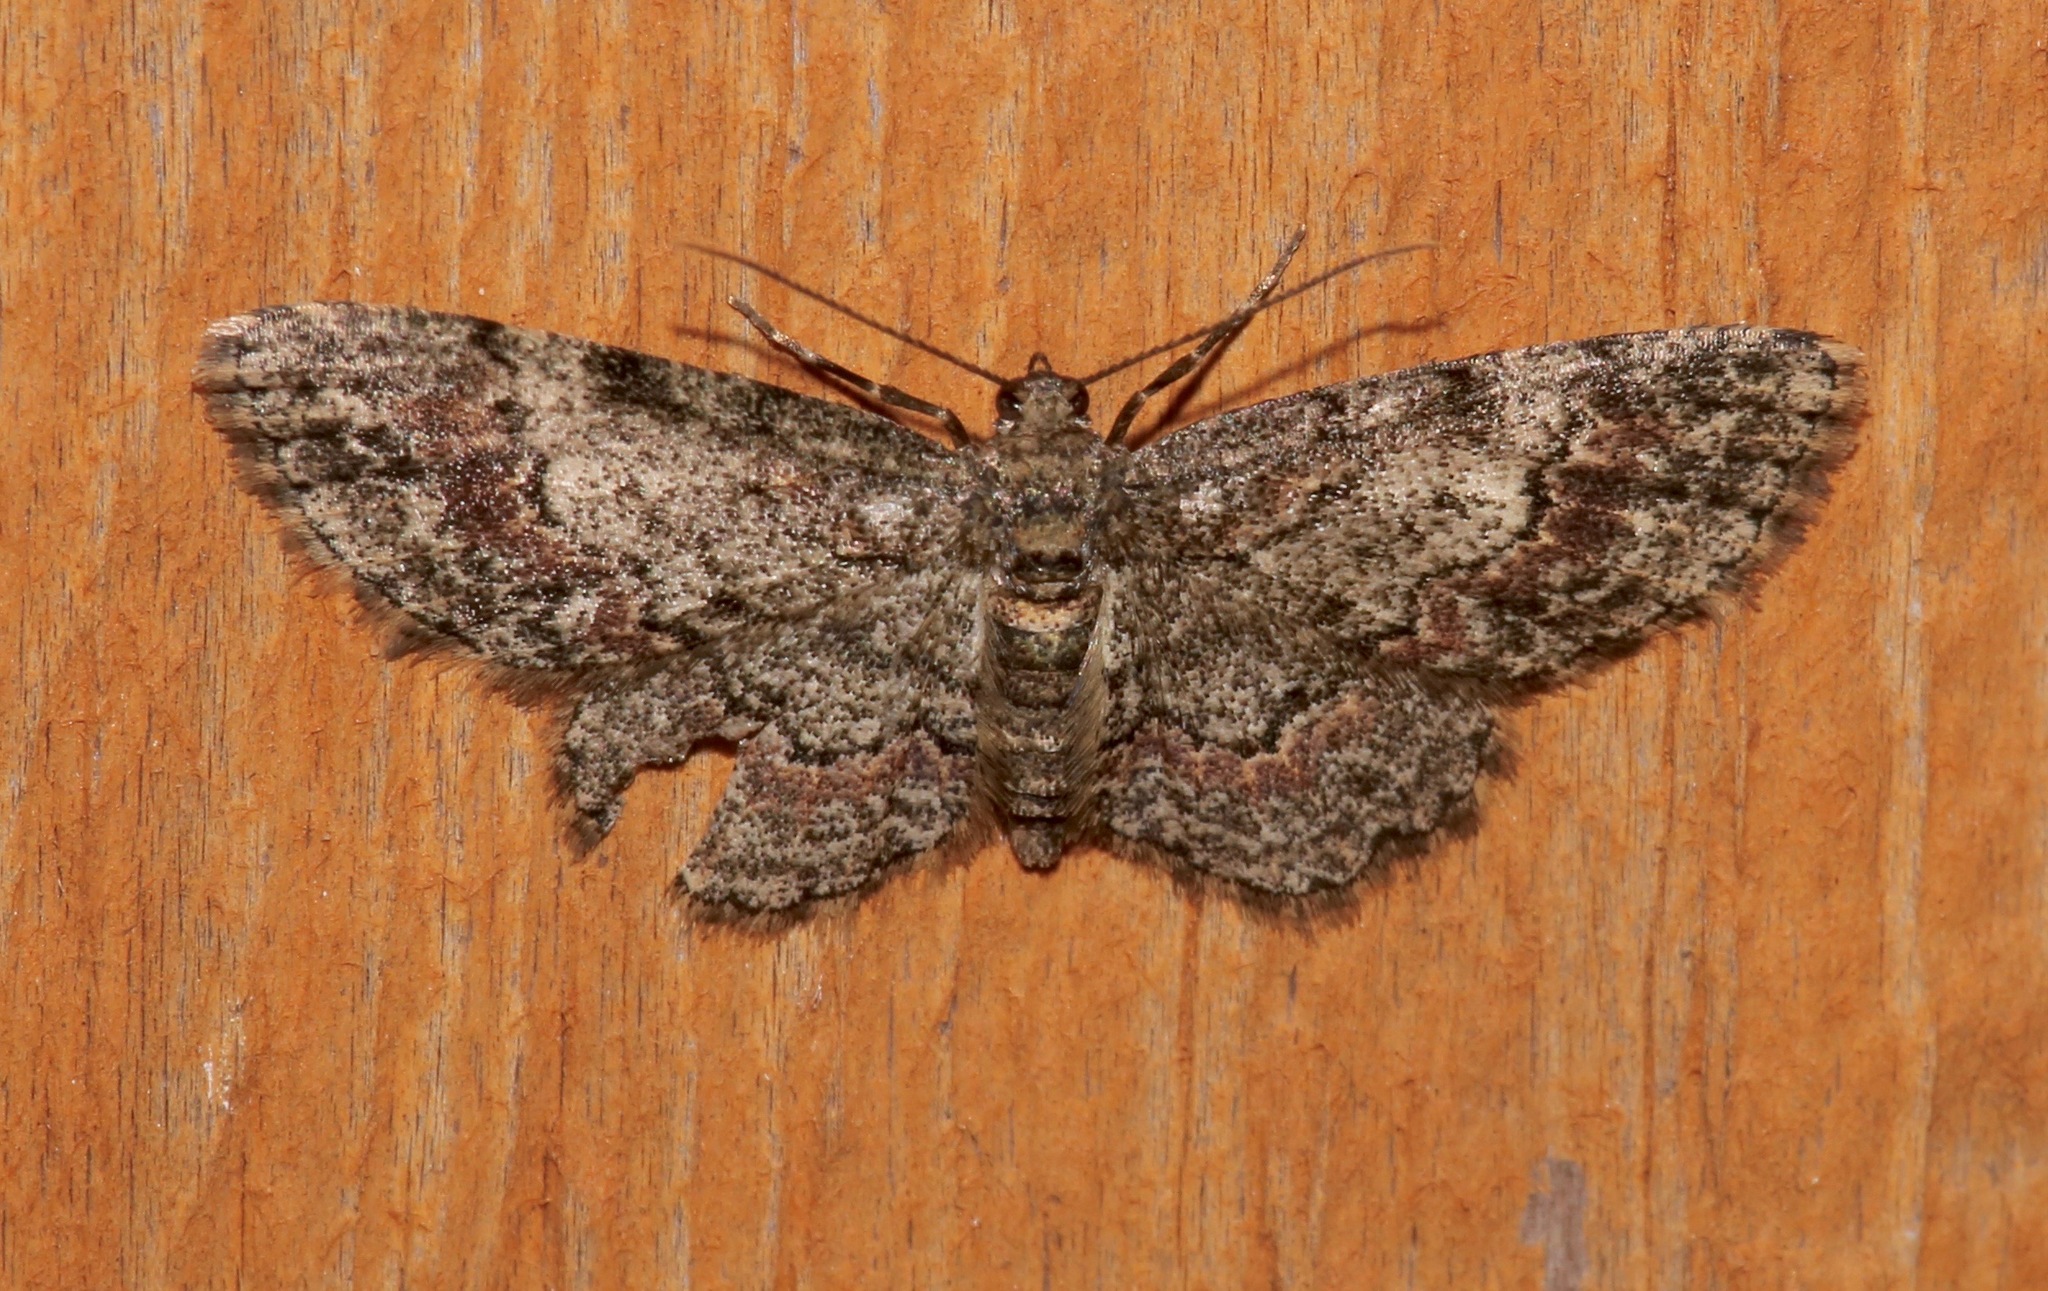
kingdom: Animalia
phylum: Arthropoda
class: Insecta
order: Lepidoptera
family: Geometridae
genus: Glenoides
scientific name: Glenoides texanaria
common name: Texas gray
